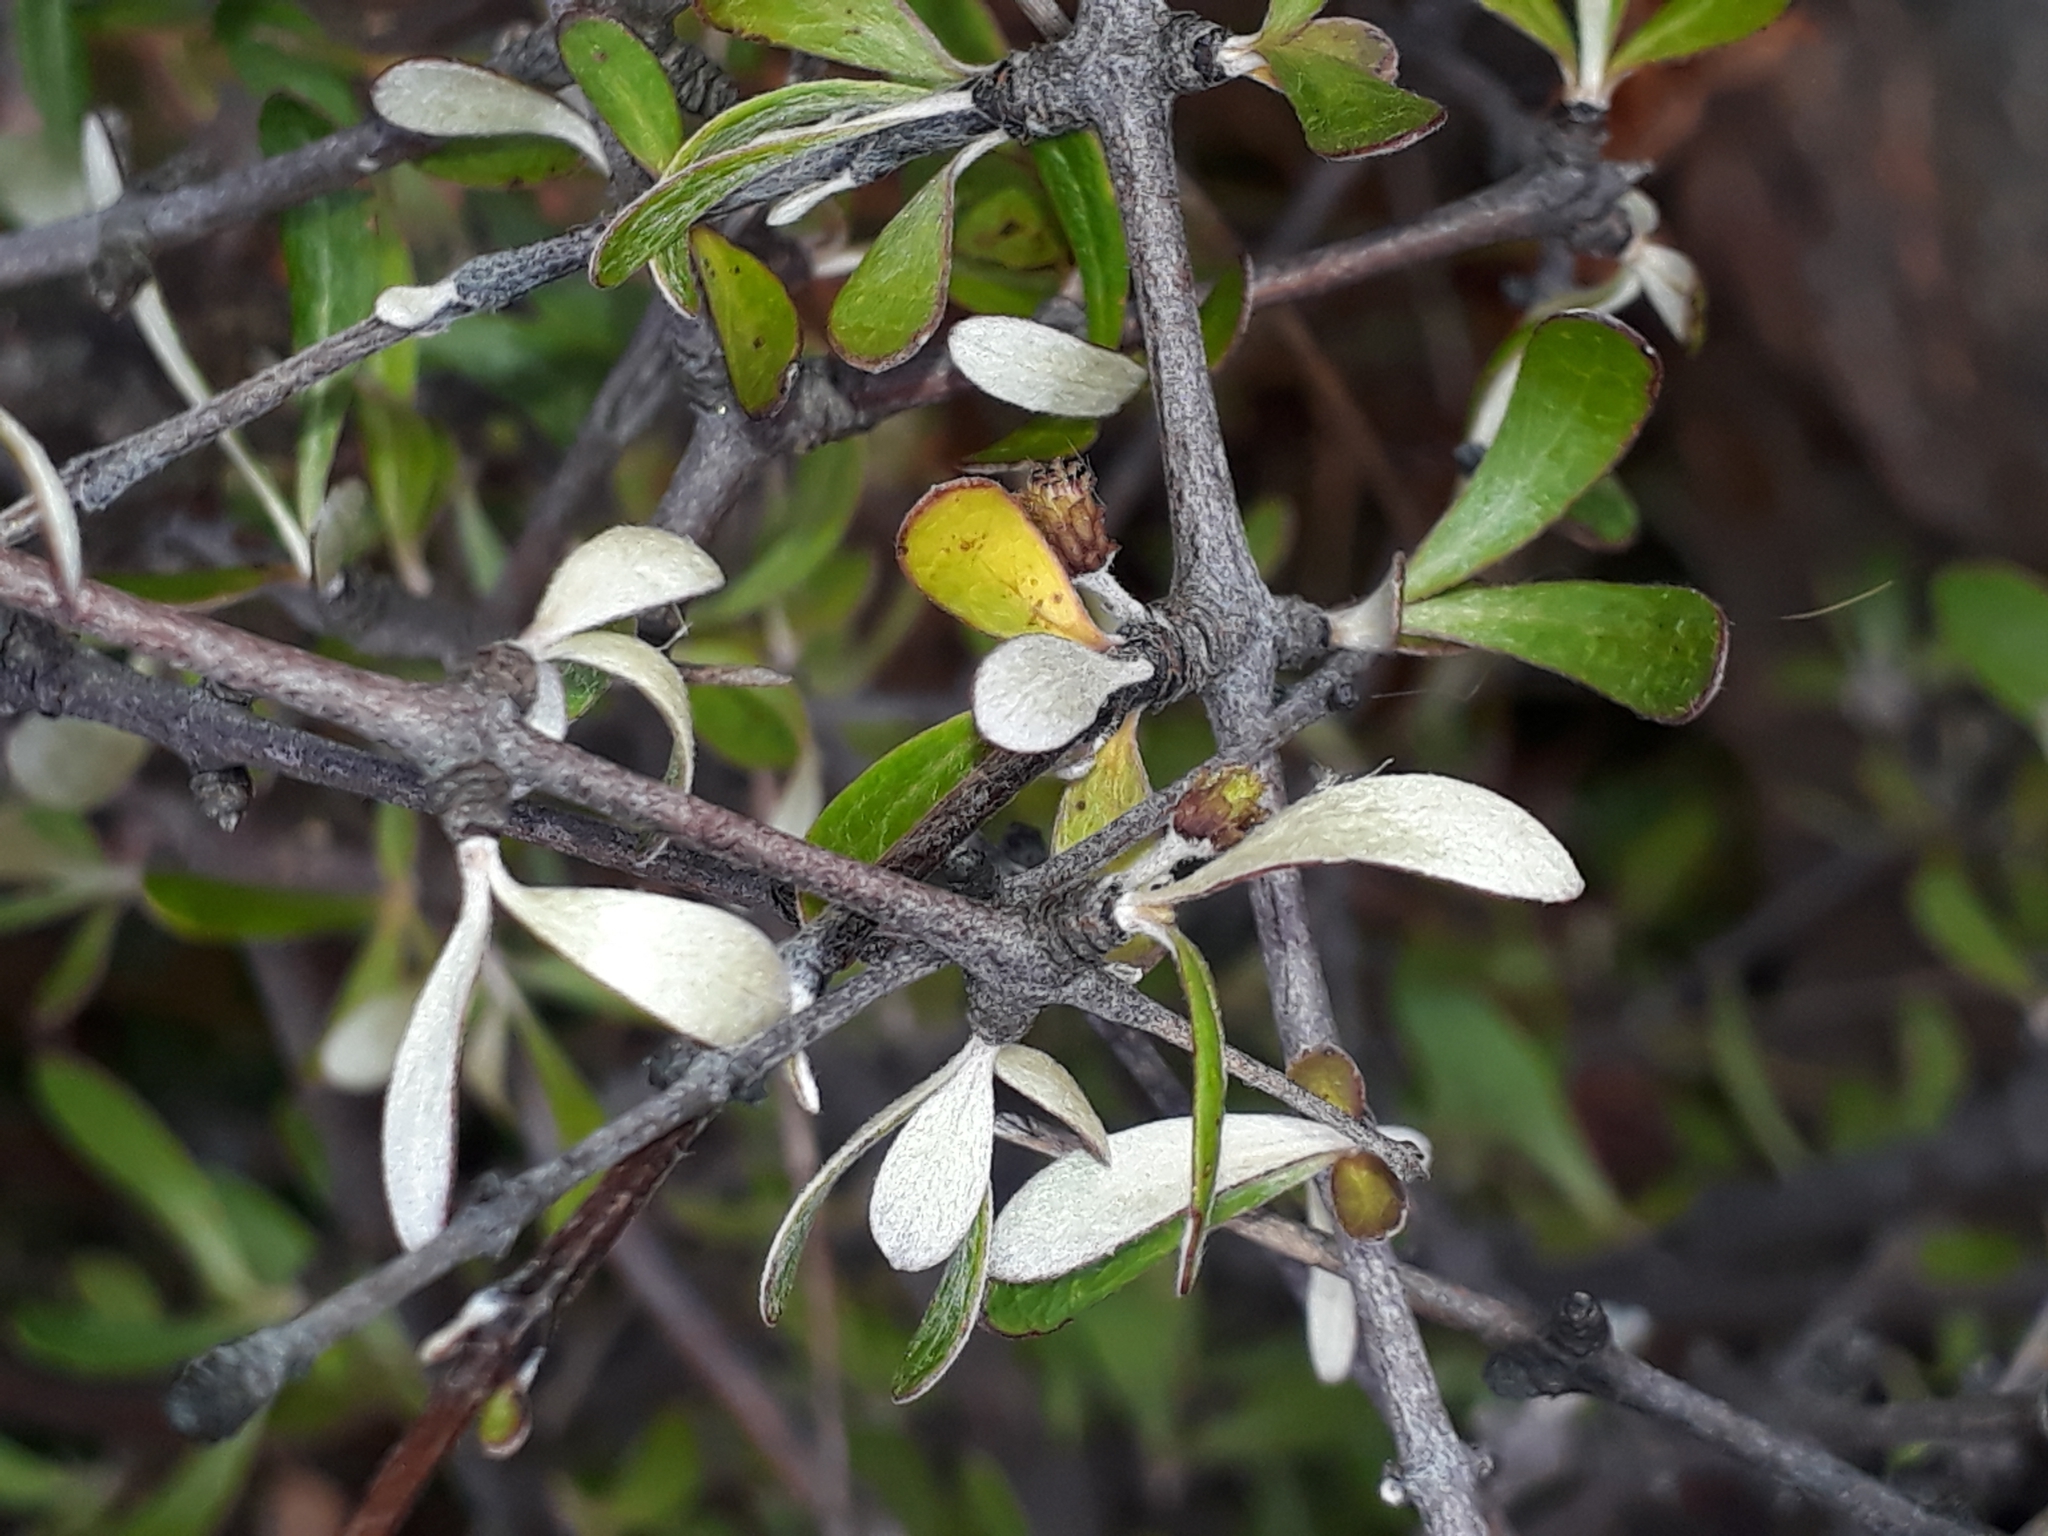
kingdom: Plantae
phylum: Tracheophyta
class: Magnoliopsida
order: Asterales
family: Asteraceae
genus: Olearia
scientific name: Olearia odorata
